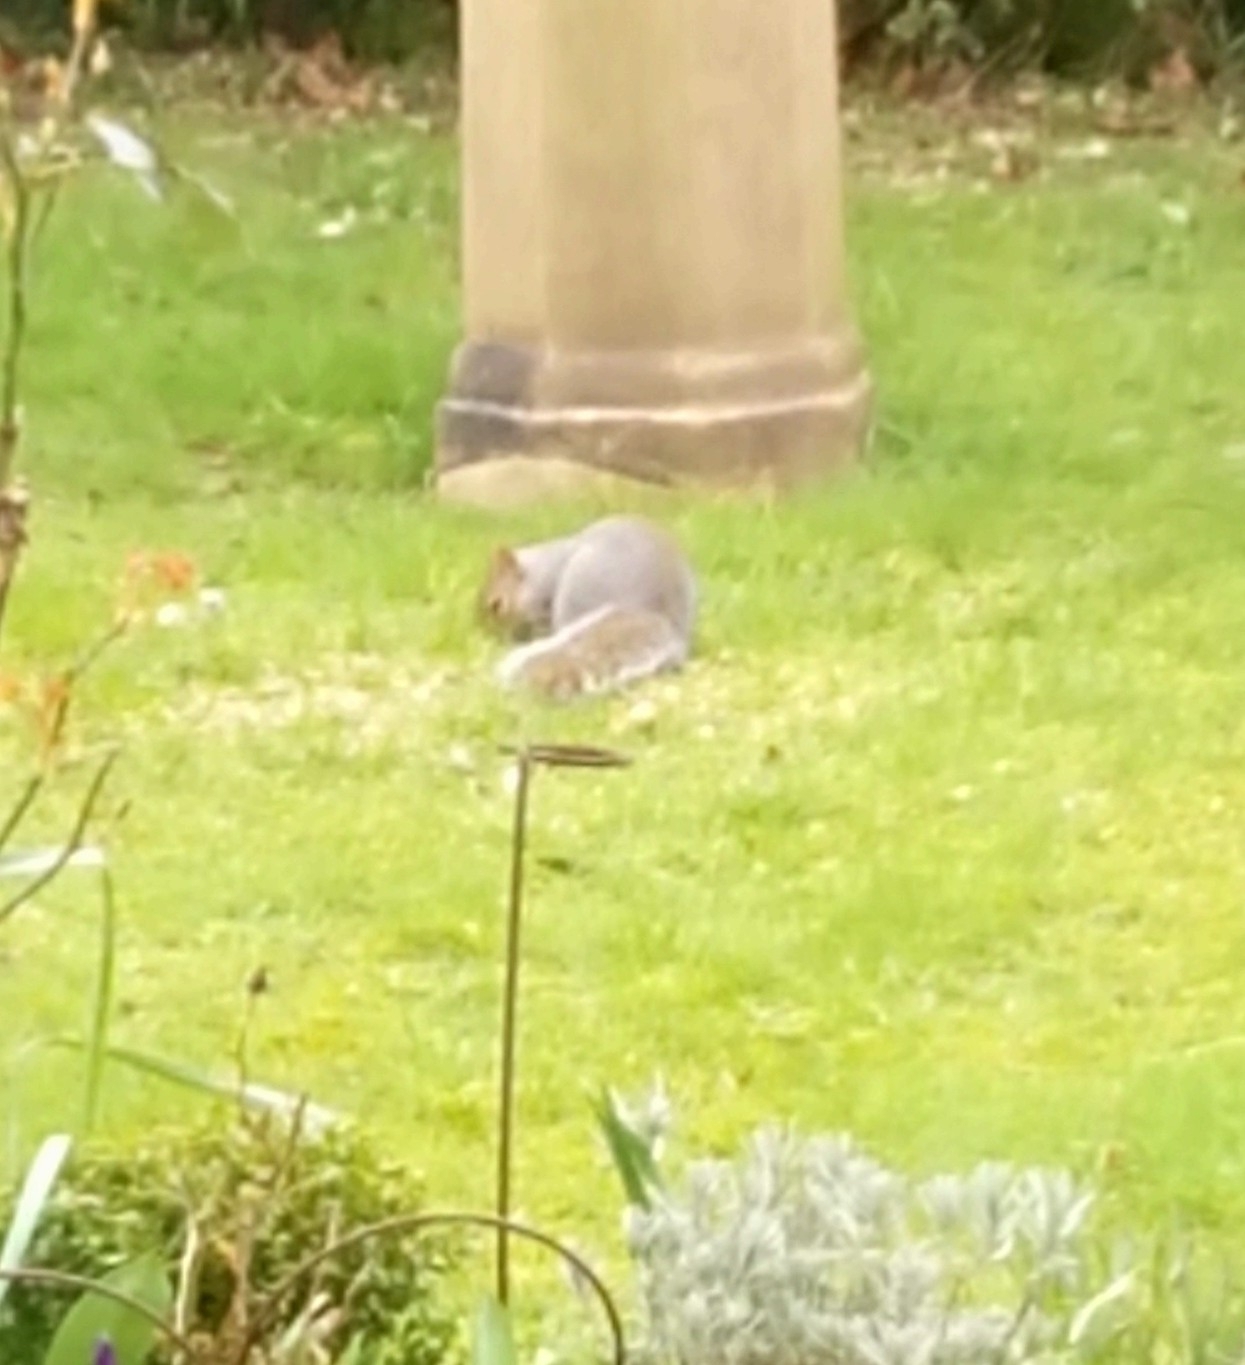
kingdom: Animalia
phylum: Chordata
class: Mammalia
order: Rodentia
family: Sciuridae
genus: Sciurus
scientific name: Sciurus carolinensis
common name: Eastern gray squirrel
